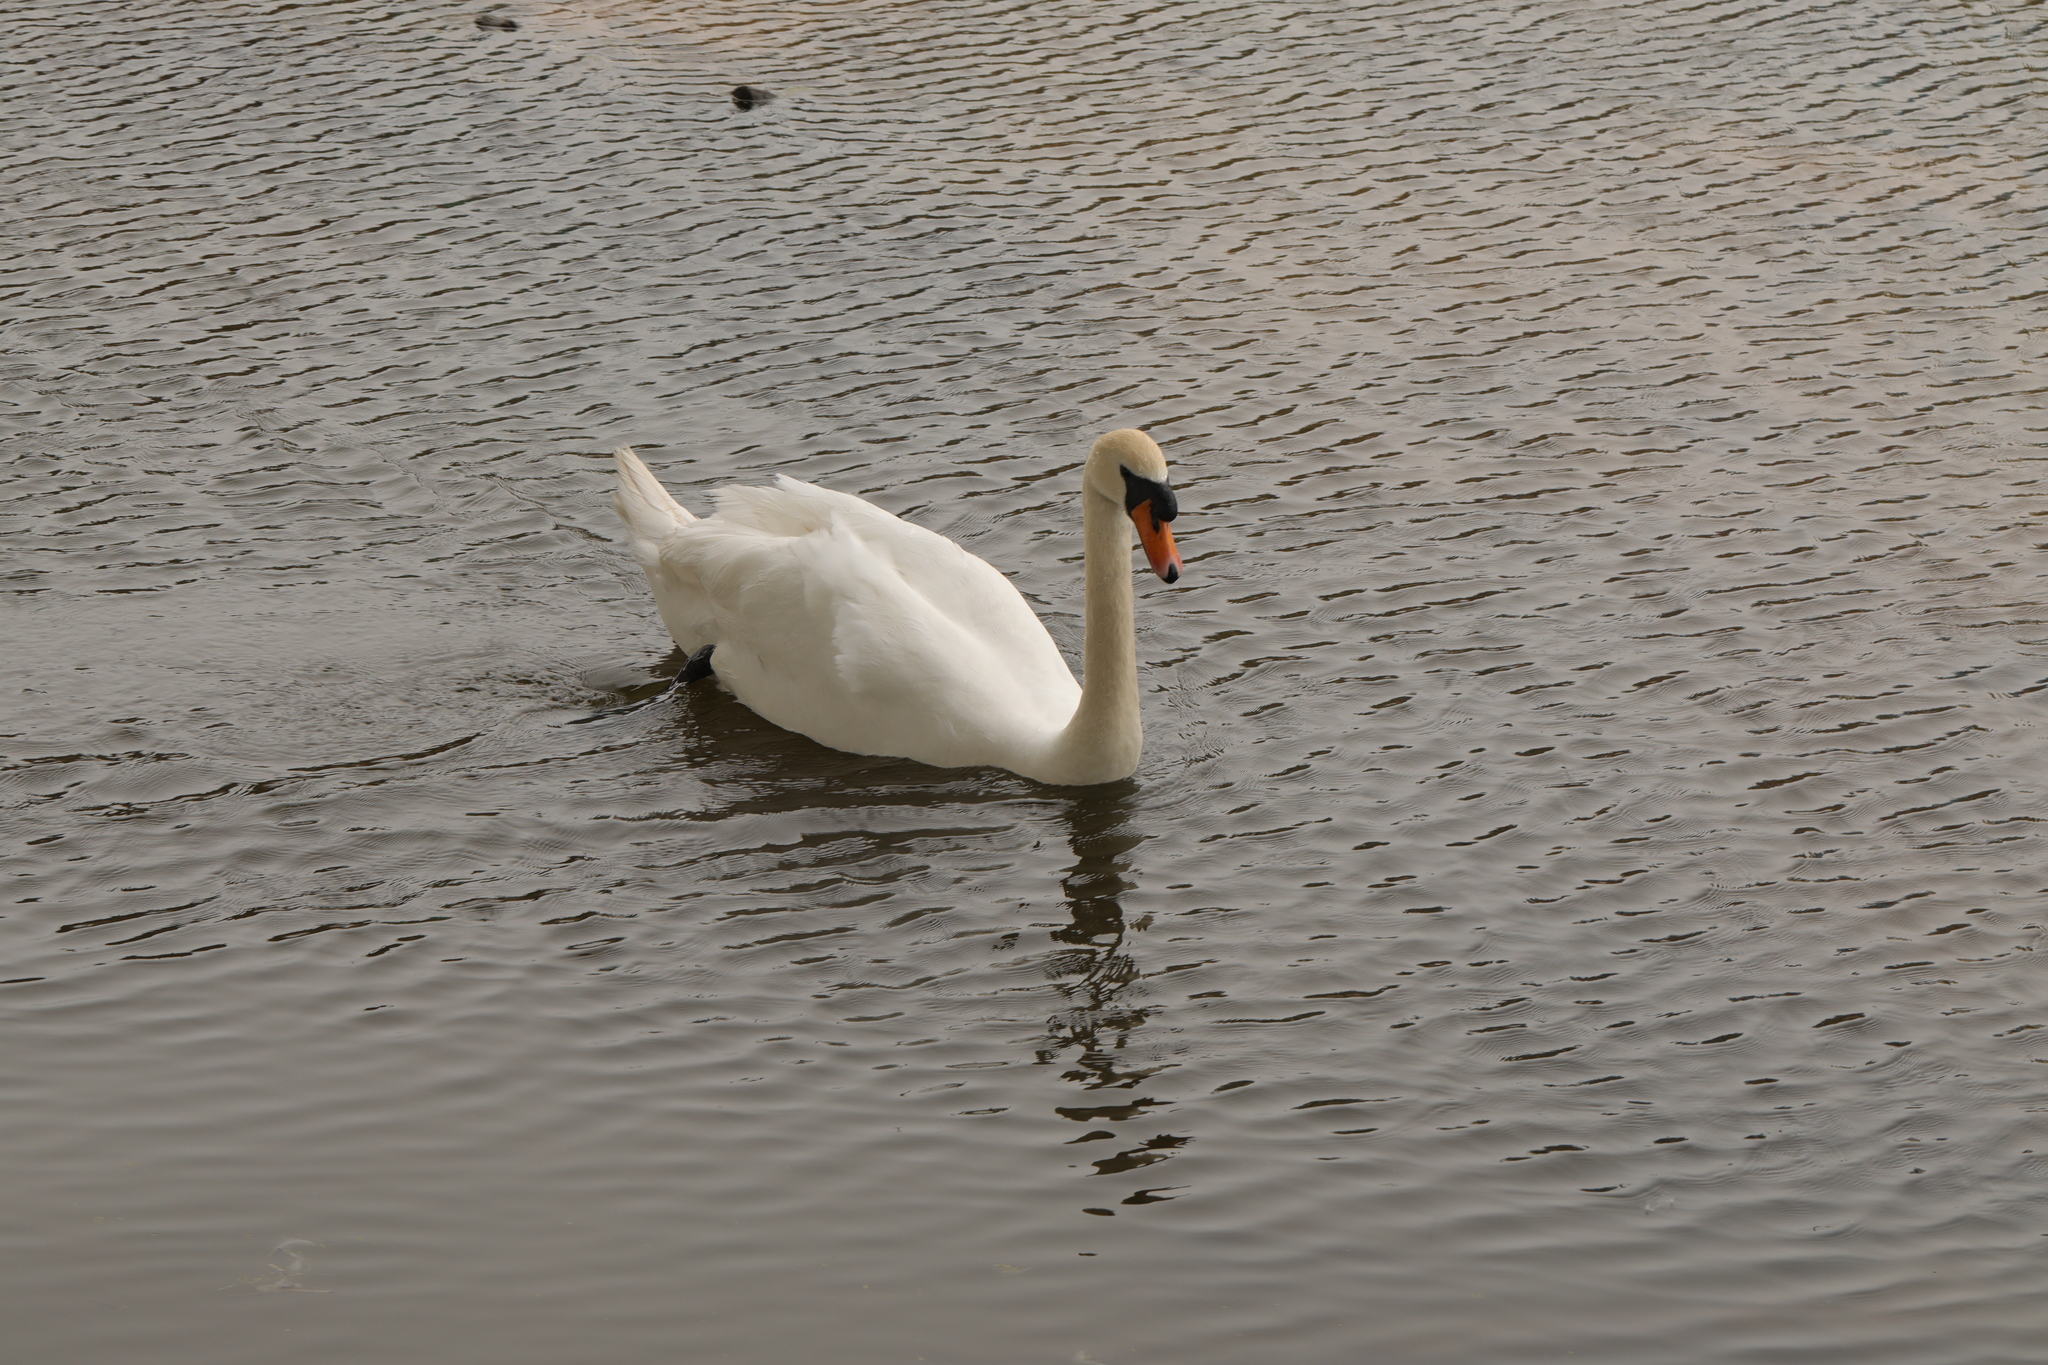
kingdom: Animalia
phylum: Chordata
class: Aves
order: Anseriformes
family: Anatidae
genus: Cygnus
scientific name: Cygnus olor
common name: Mute swan
